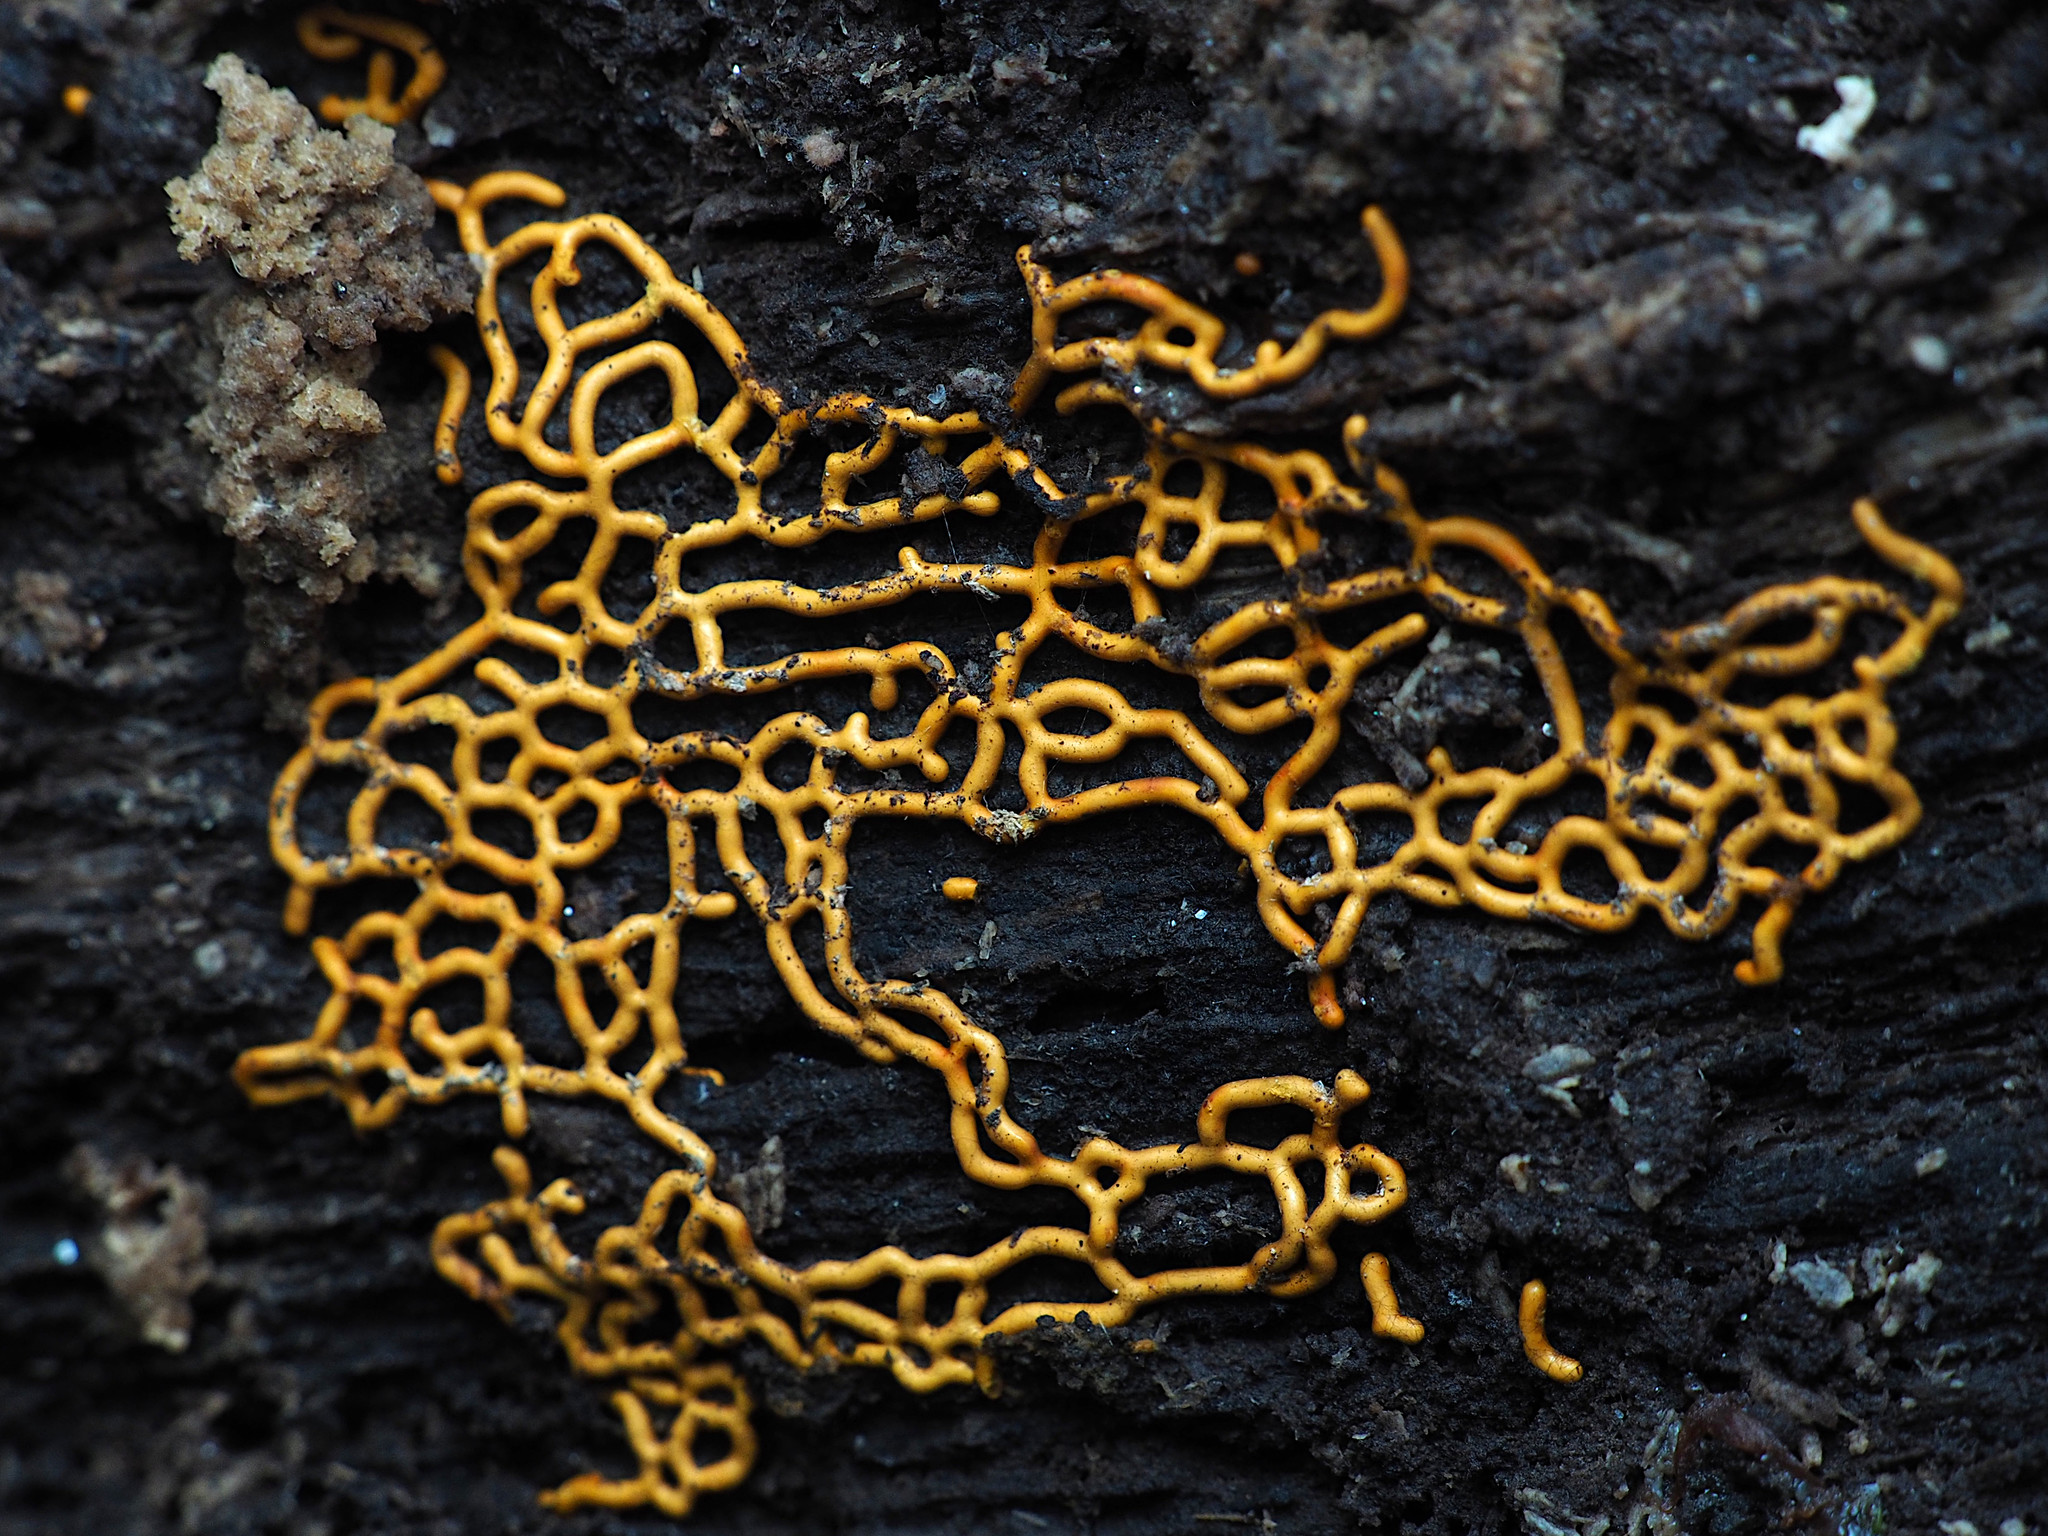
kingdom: Protozoa
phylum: Mycetozoa
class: Myxomycetes
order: Trichiales
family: Arcyriaceae
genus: Hemitrichia
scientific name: Hemitrichia serpula
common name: Pretzel slime mold
